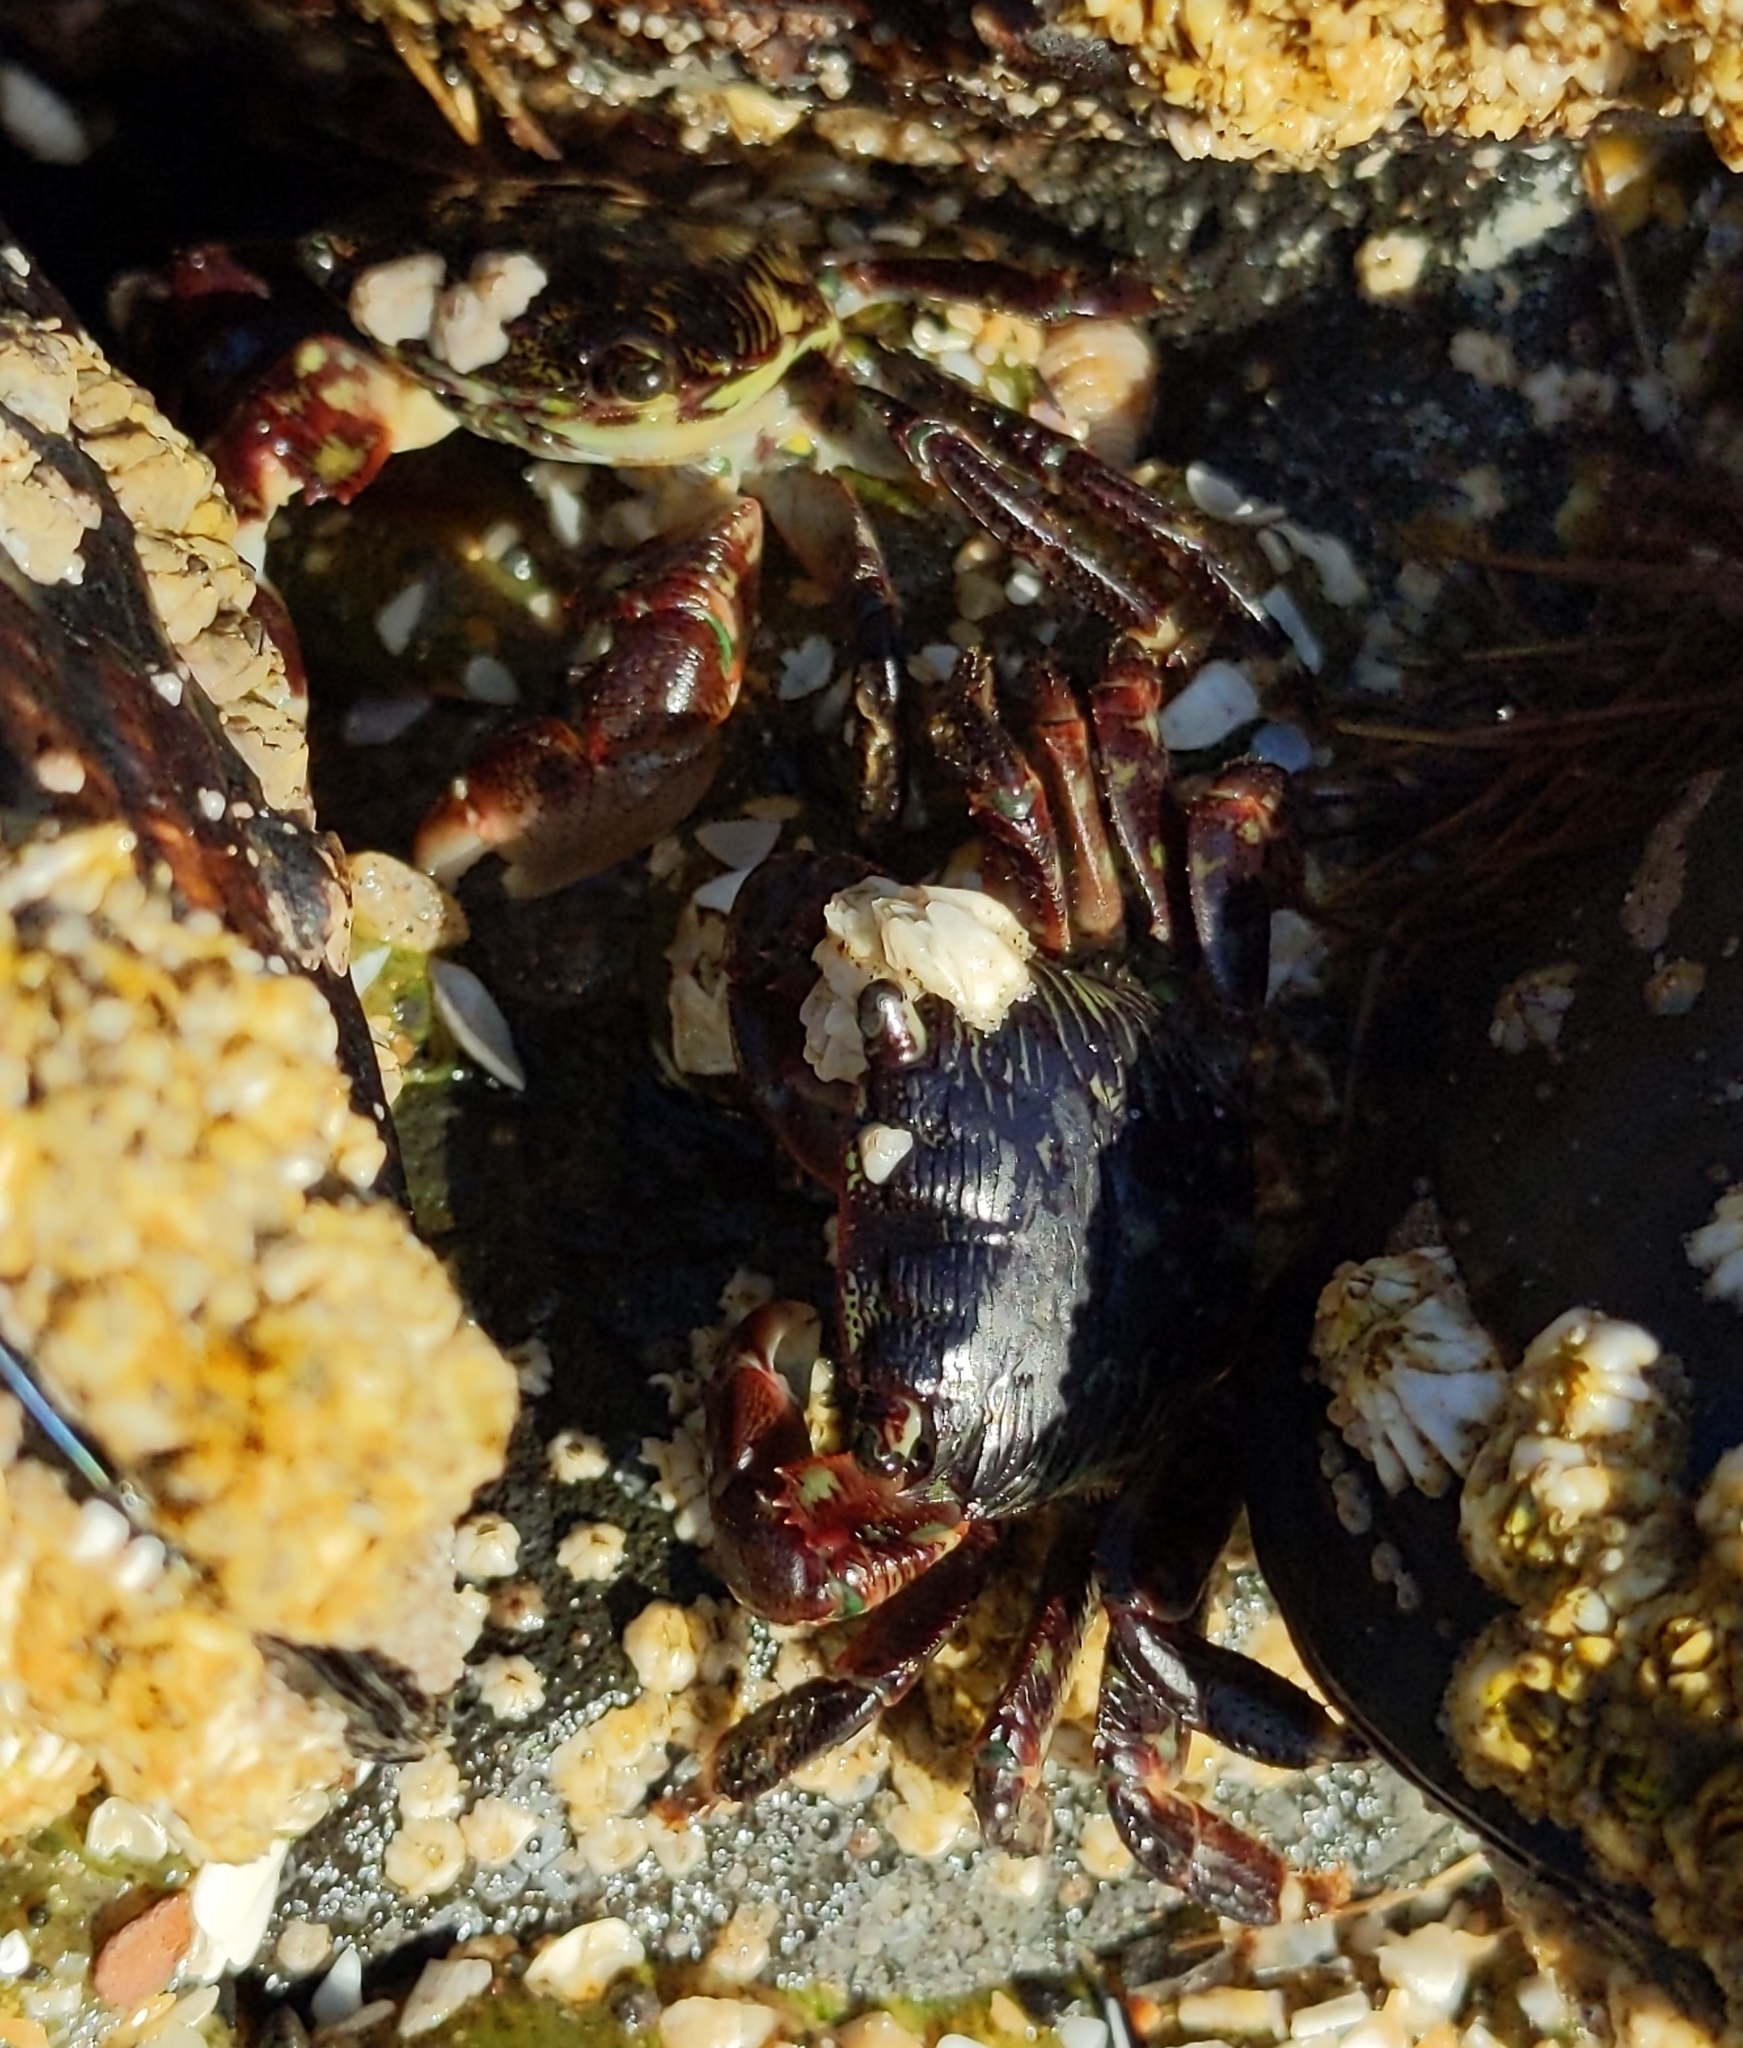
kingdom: Animalia
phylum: Arthropoda
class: Malacostraca
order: Decapoda
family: Grapsidae
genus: Pachygrapsus
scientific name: Pachygrapsus crassipes
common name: Striped shore crab
